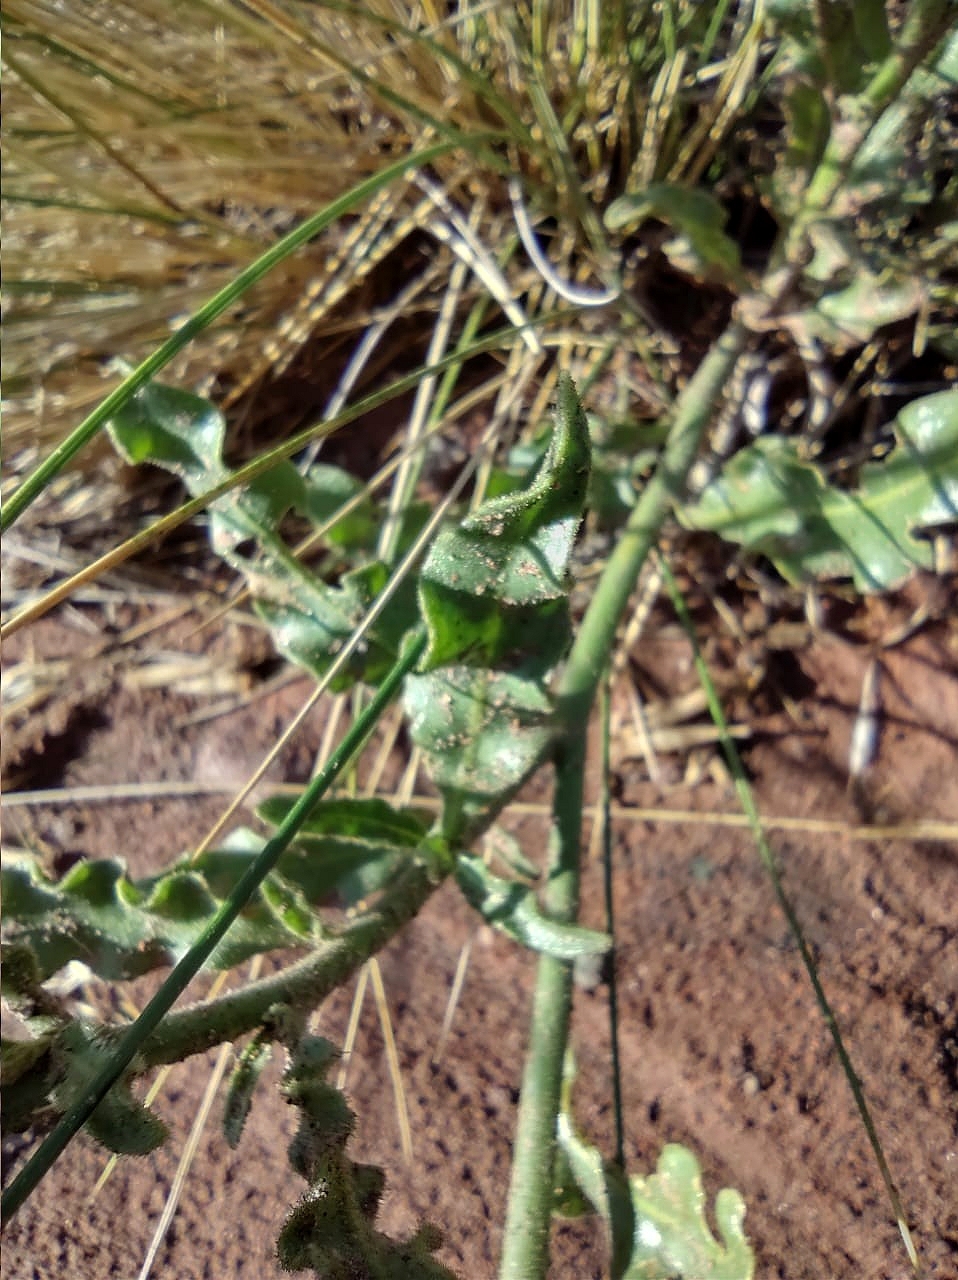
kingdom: Plantae
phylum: Tracheophyta
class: Magnoliopsida
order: Solanales
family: Solanaceae
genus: Nicotiana
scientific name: Nicotiana noctiflora
